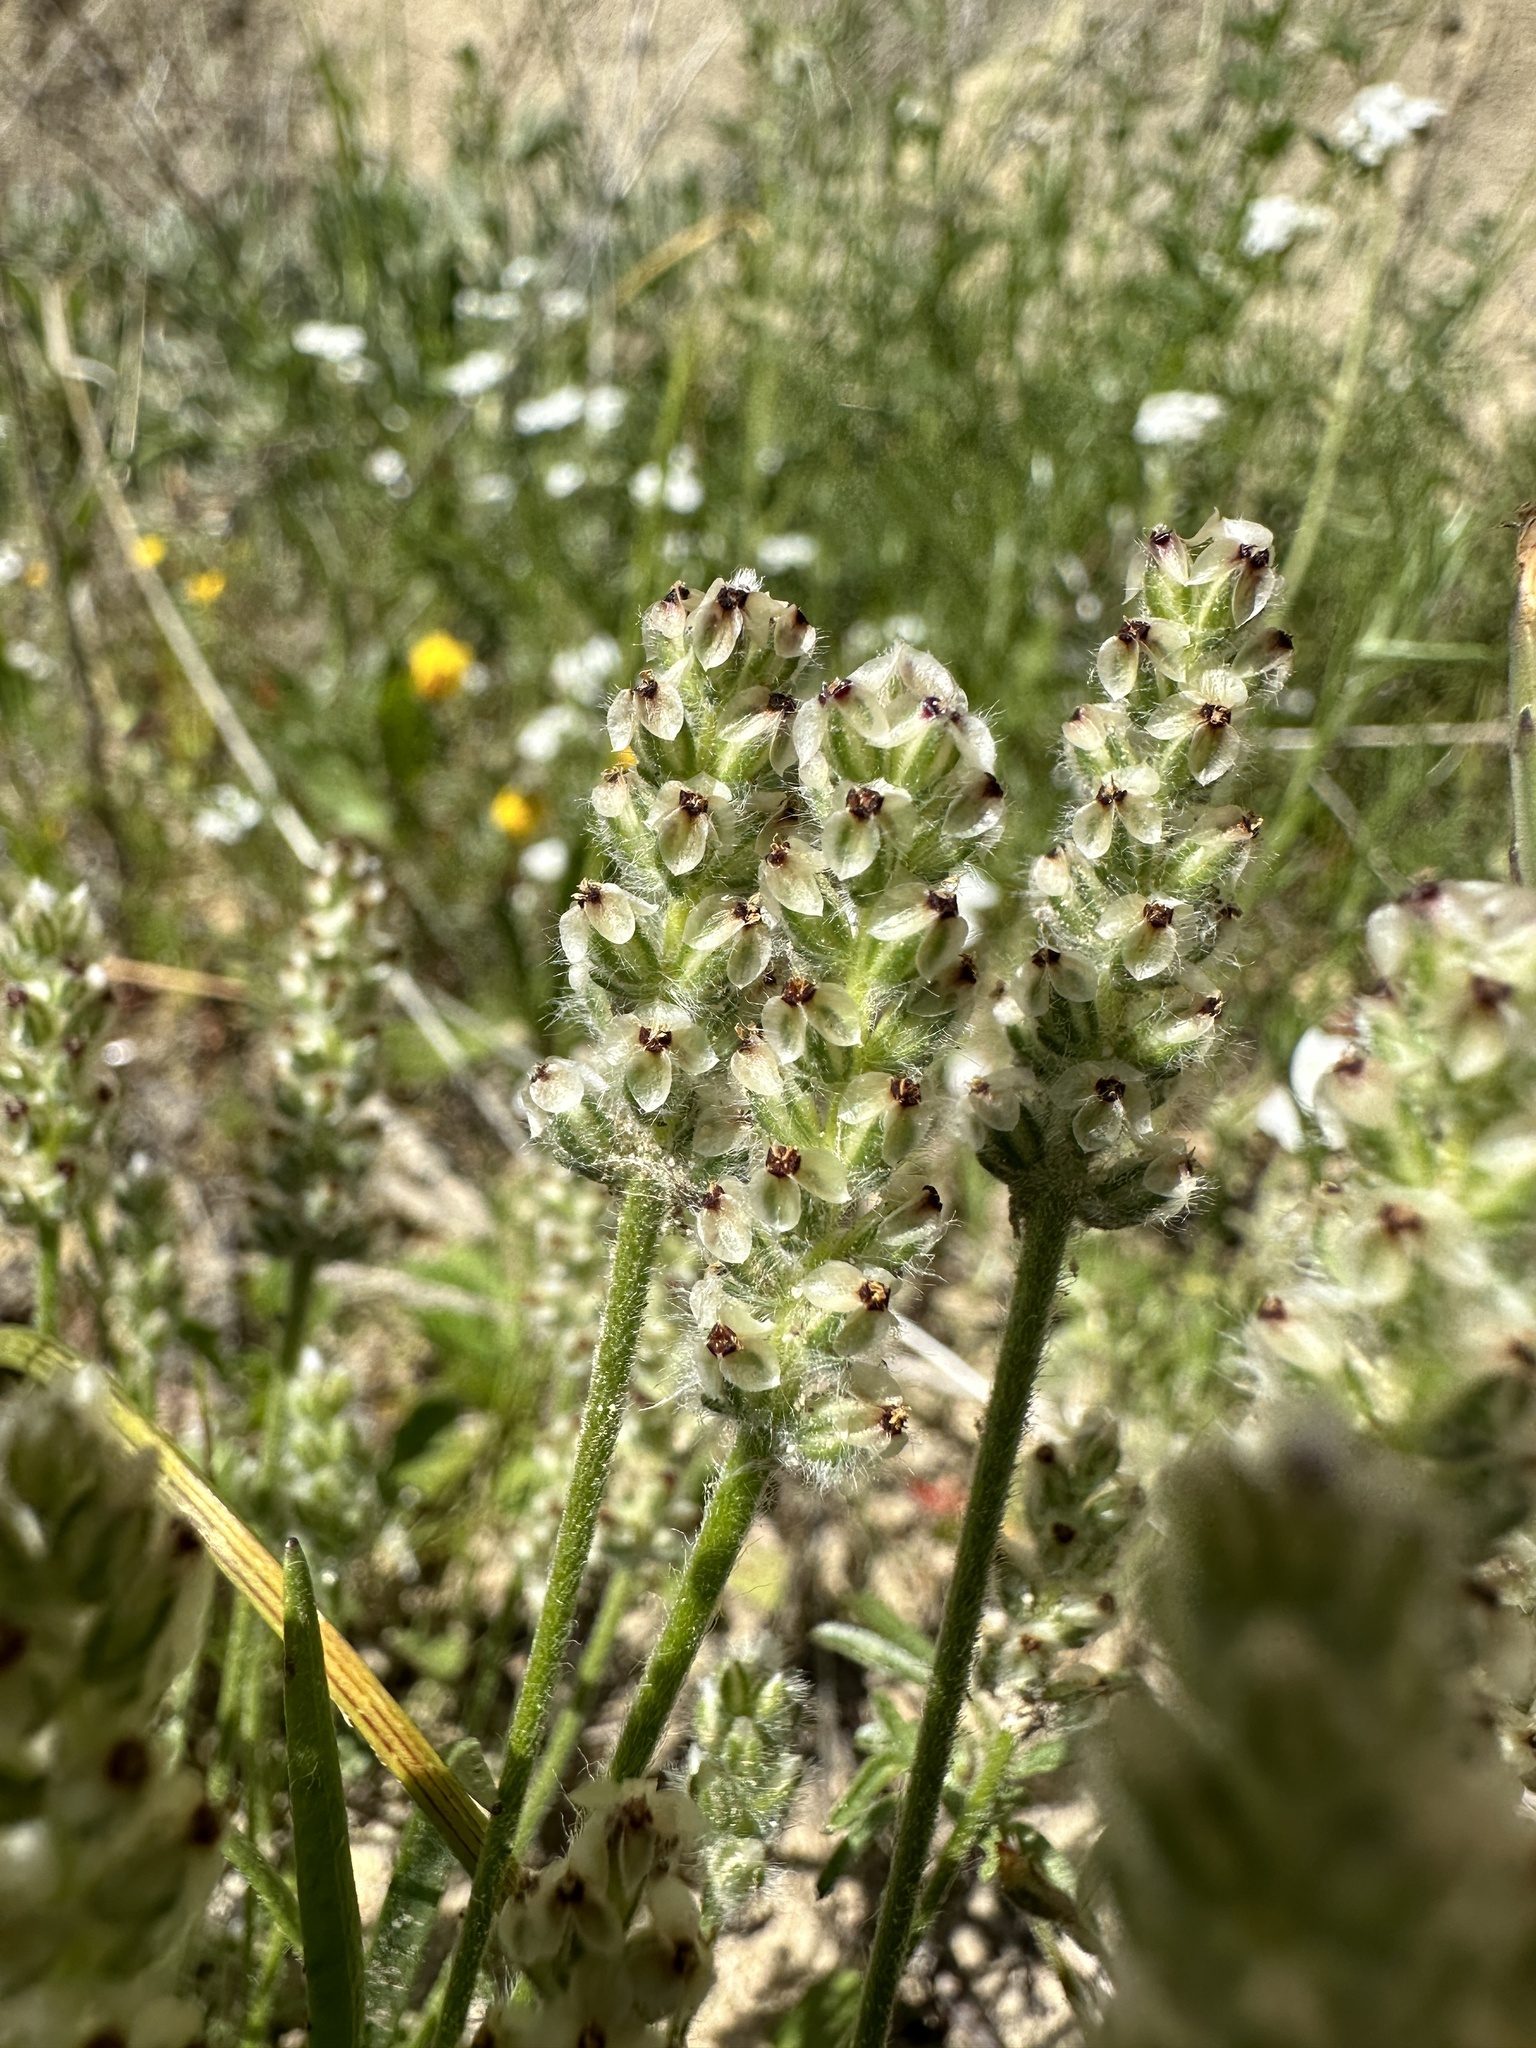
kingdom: Plantae
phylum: Tracheophyta
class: Magnoliopsida
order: Lamiales
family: Plantaginaceae
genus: Plantago
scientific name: Plantago erecta
